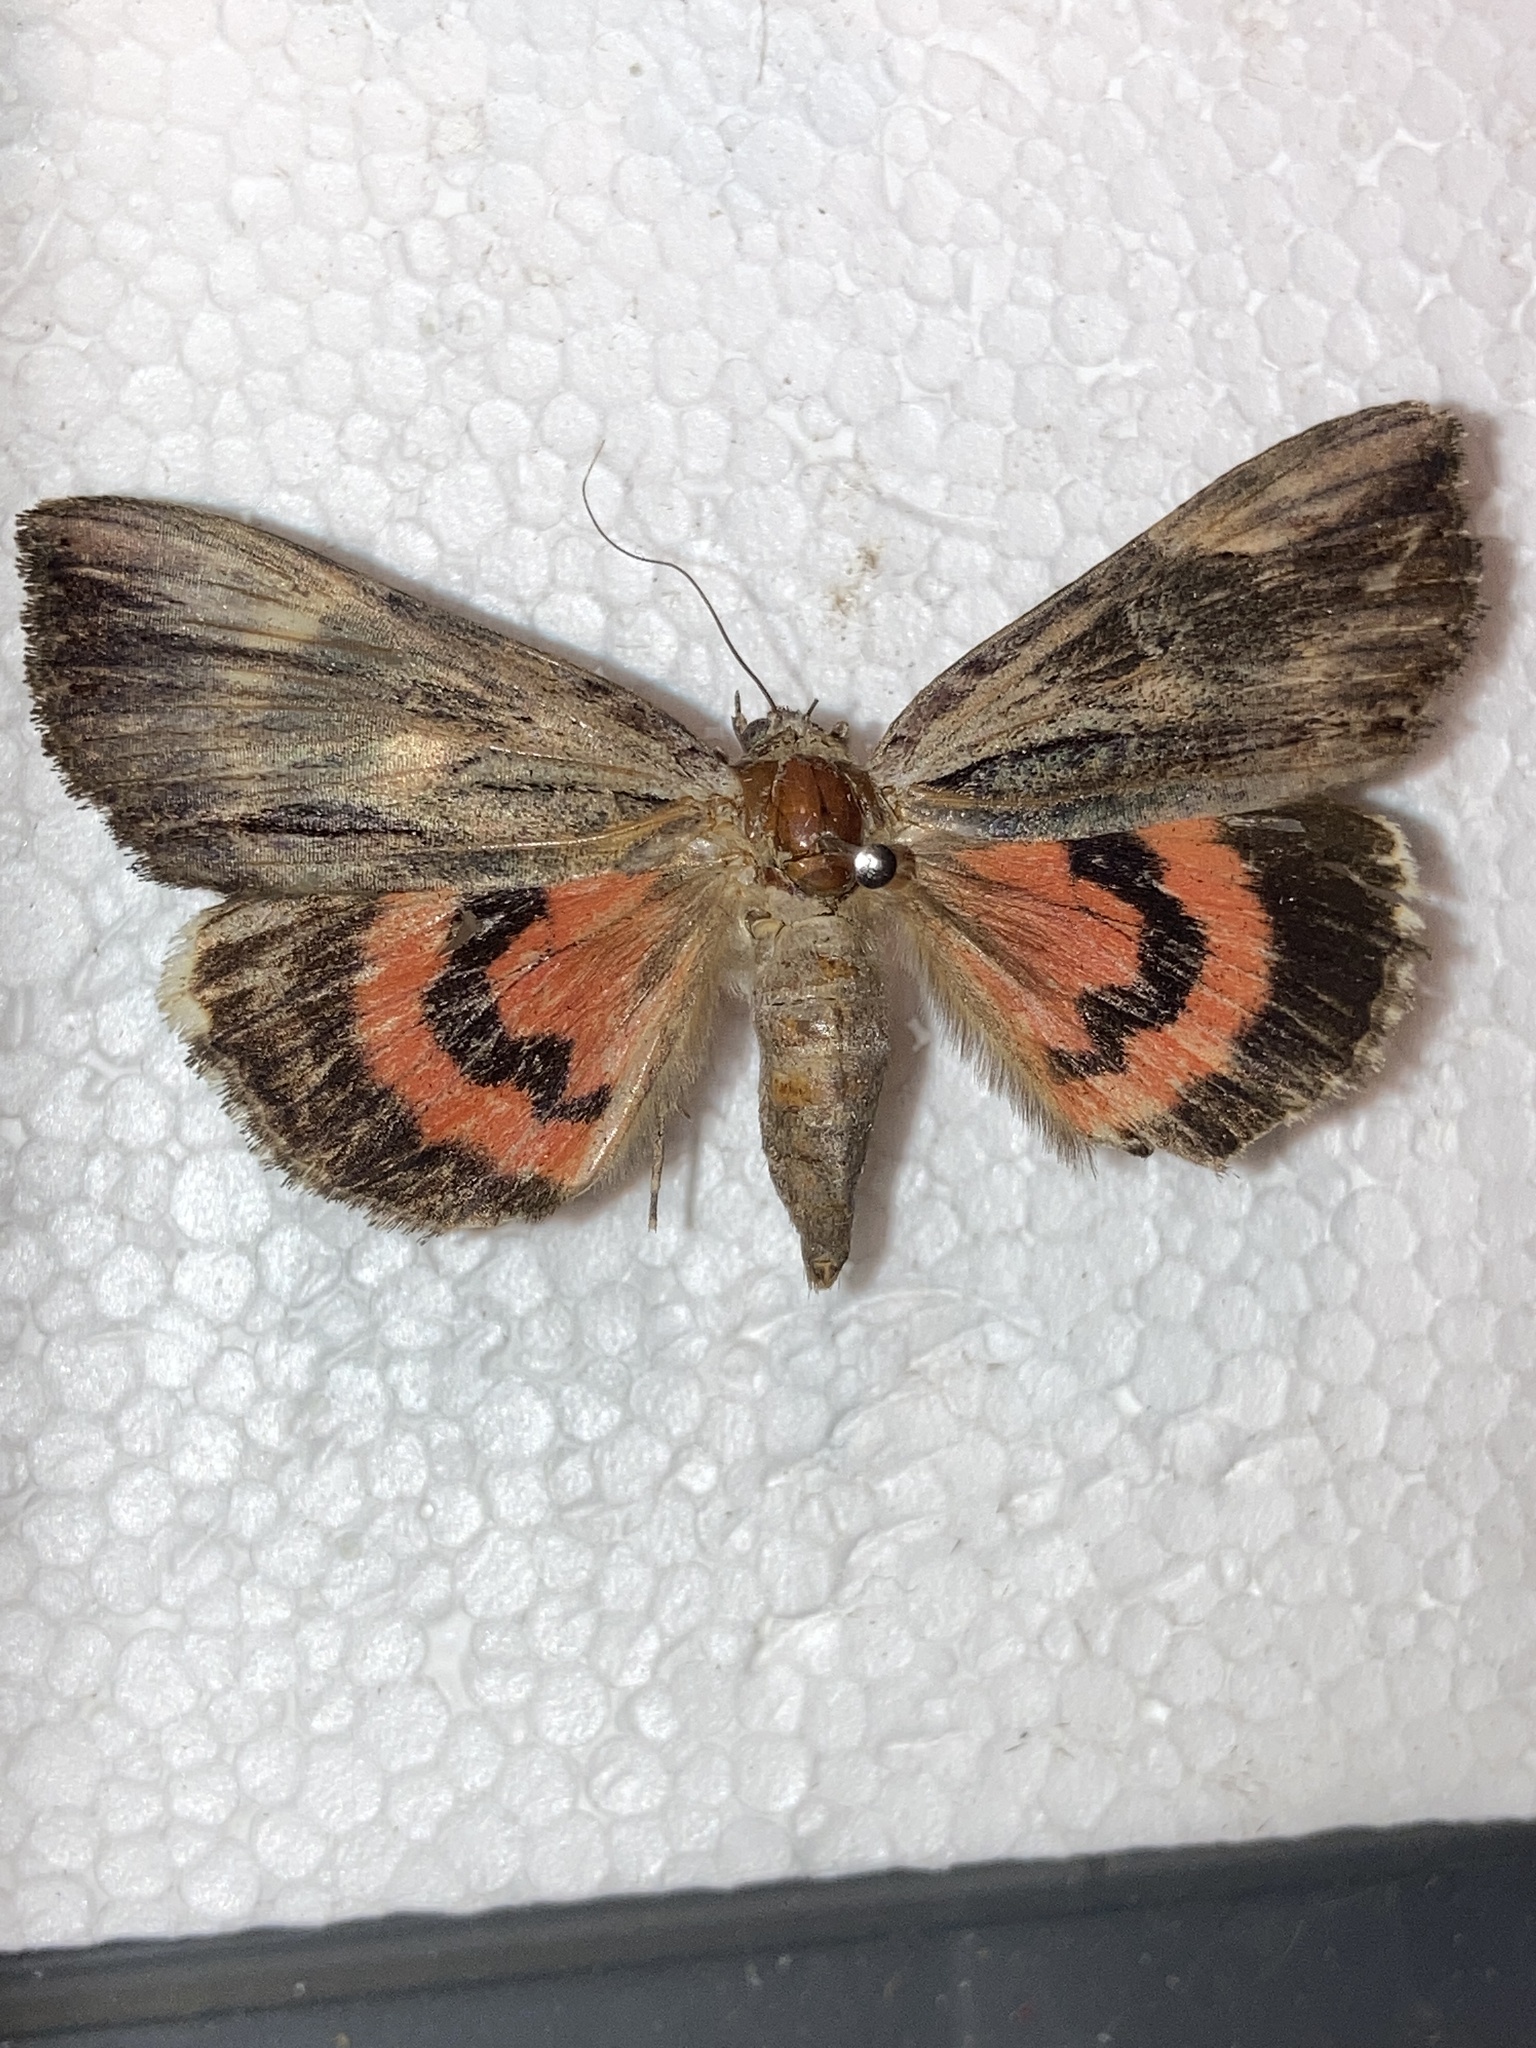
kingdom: Animalia
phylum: Arthropoda
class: Insecta
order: Lepidoptera
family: Erebidae
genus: Catocala
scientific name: Catocala ultronia
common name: Ultronia underwing
